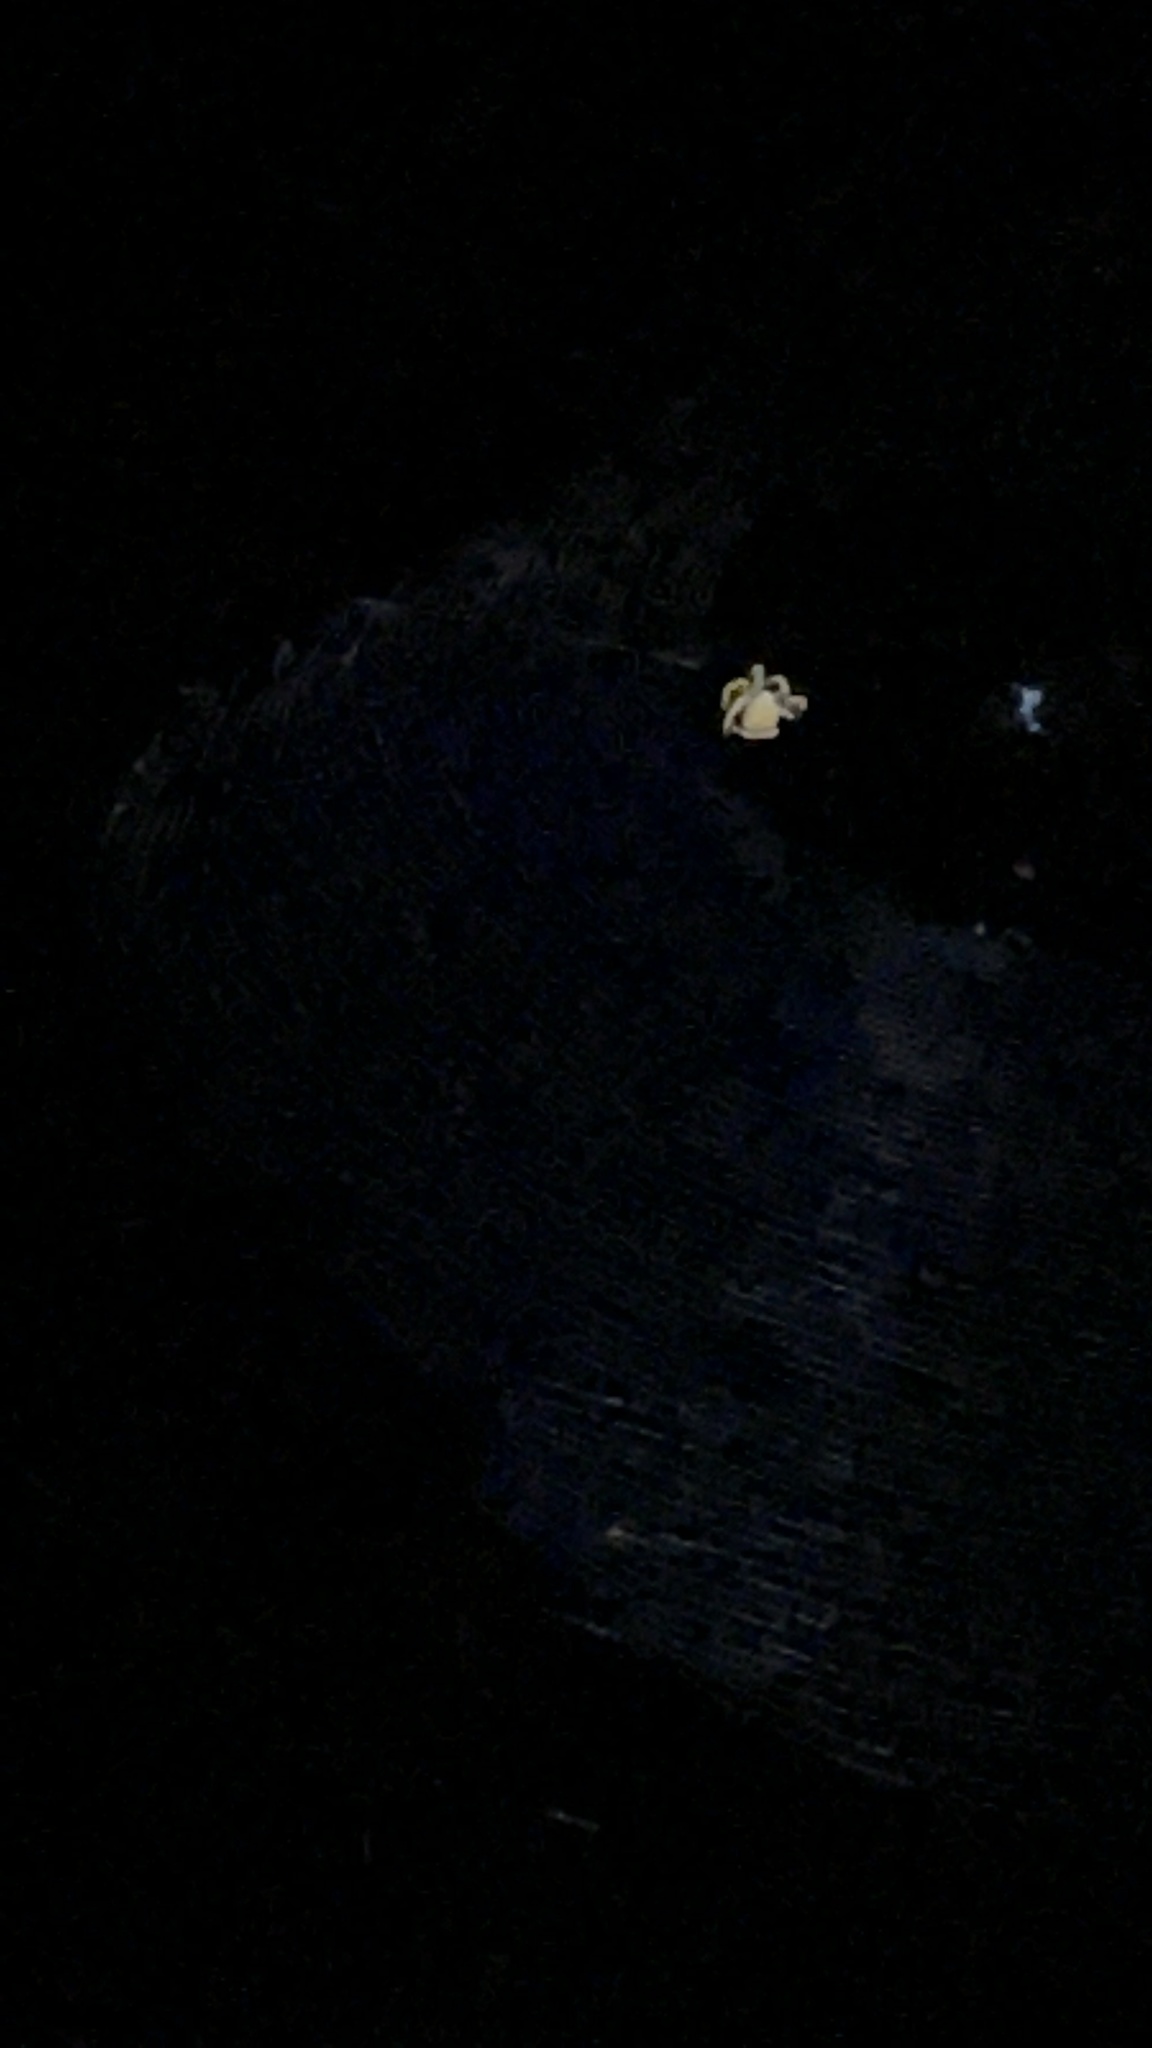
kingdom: Animalia
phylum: Arthropoda
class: Arachnida
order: Araneae
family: Araneidae
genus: Eriophora
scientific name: Eriophora ravilla
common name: Orb weavers
